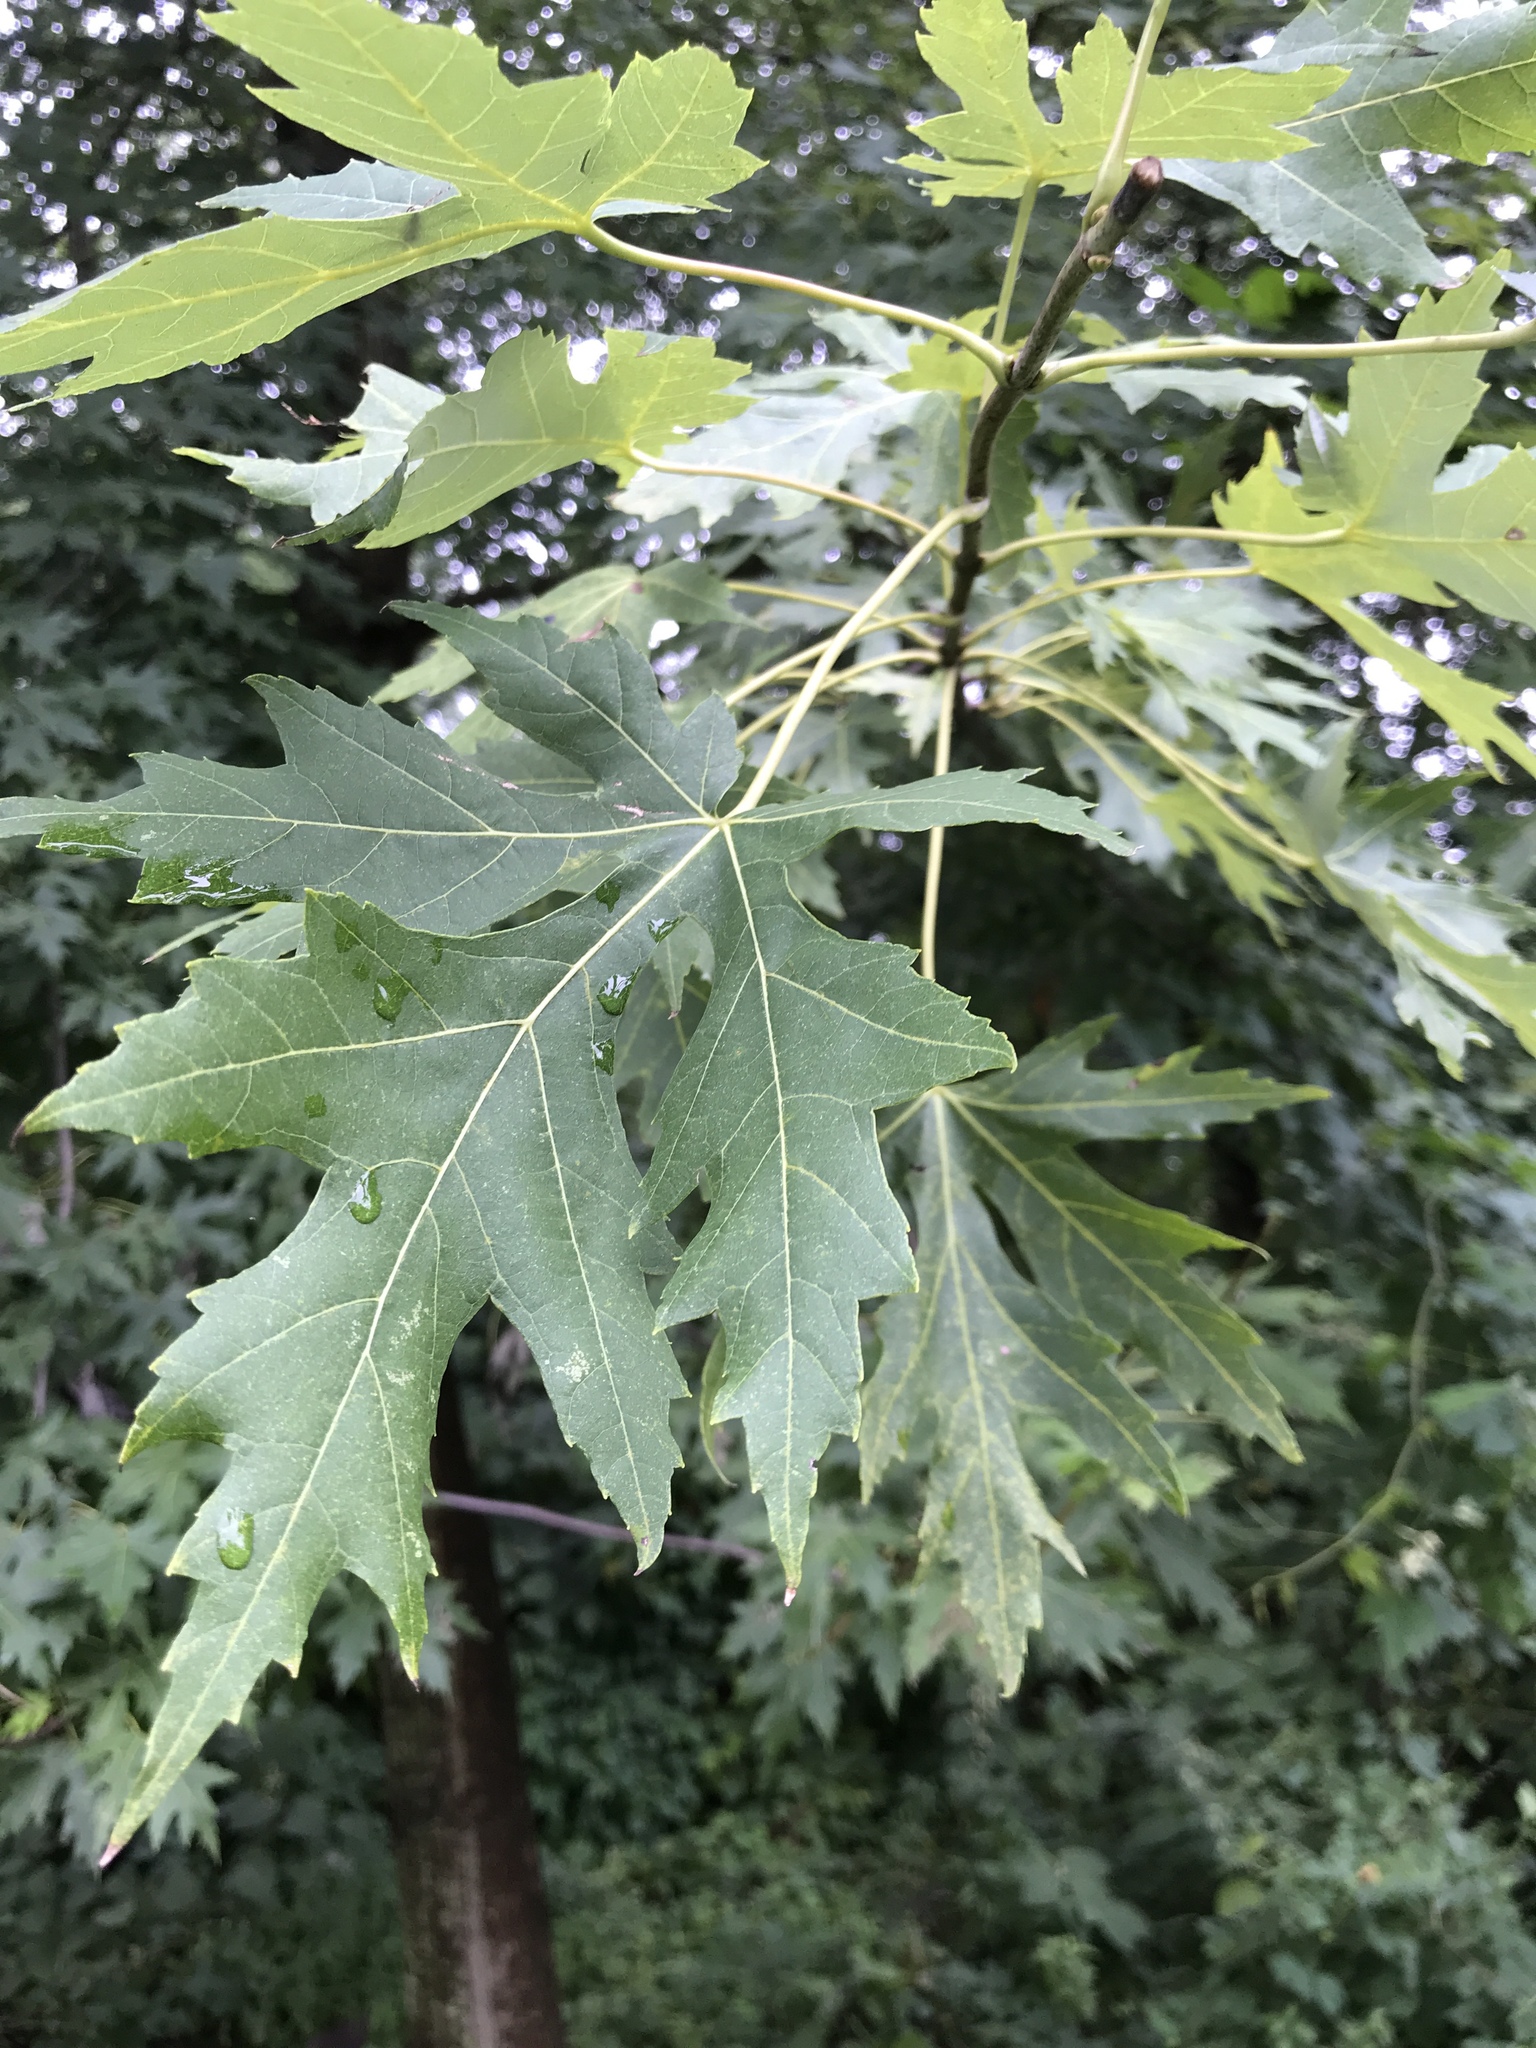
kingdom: Plantae
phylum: Tracheophyta
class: Magnoliopsida
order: Sapindales
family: Sapindaceae
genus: Acer
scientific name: Acer saccharinum
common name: Silver maple
